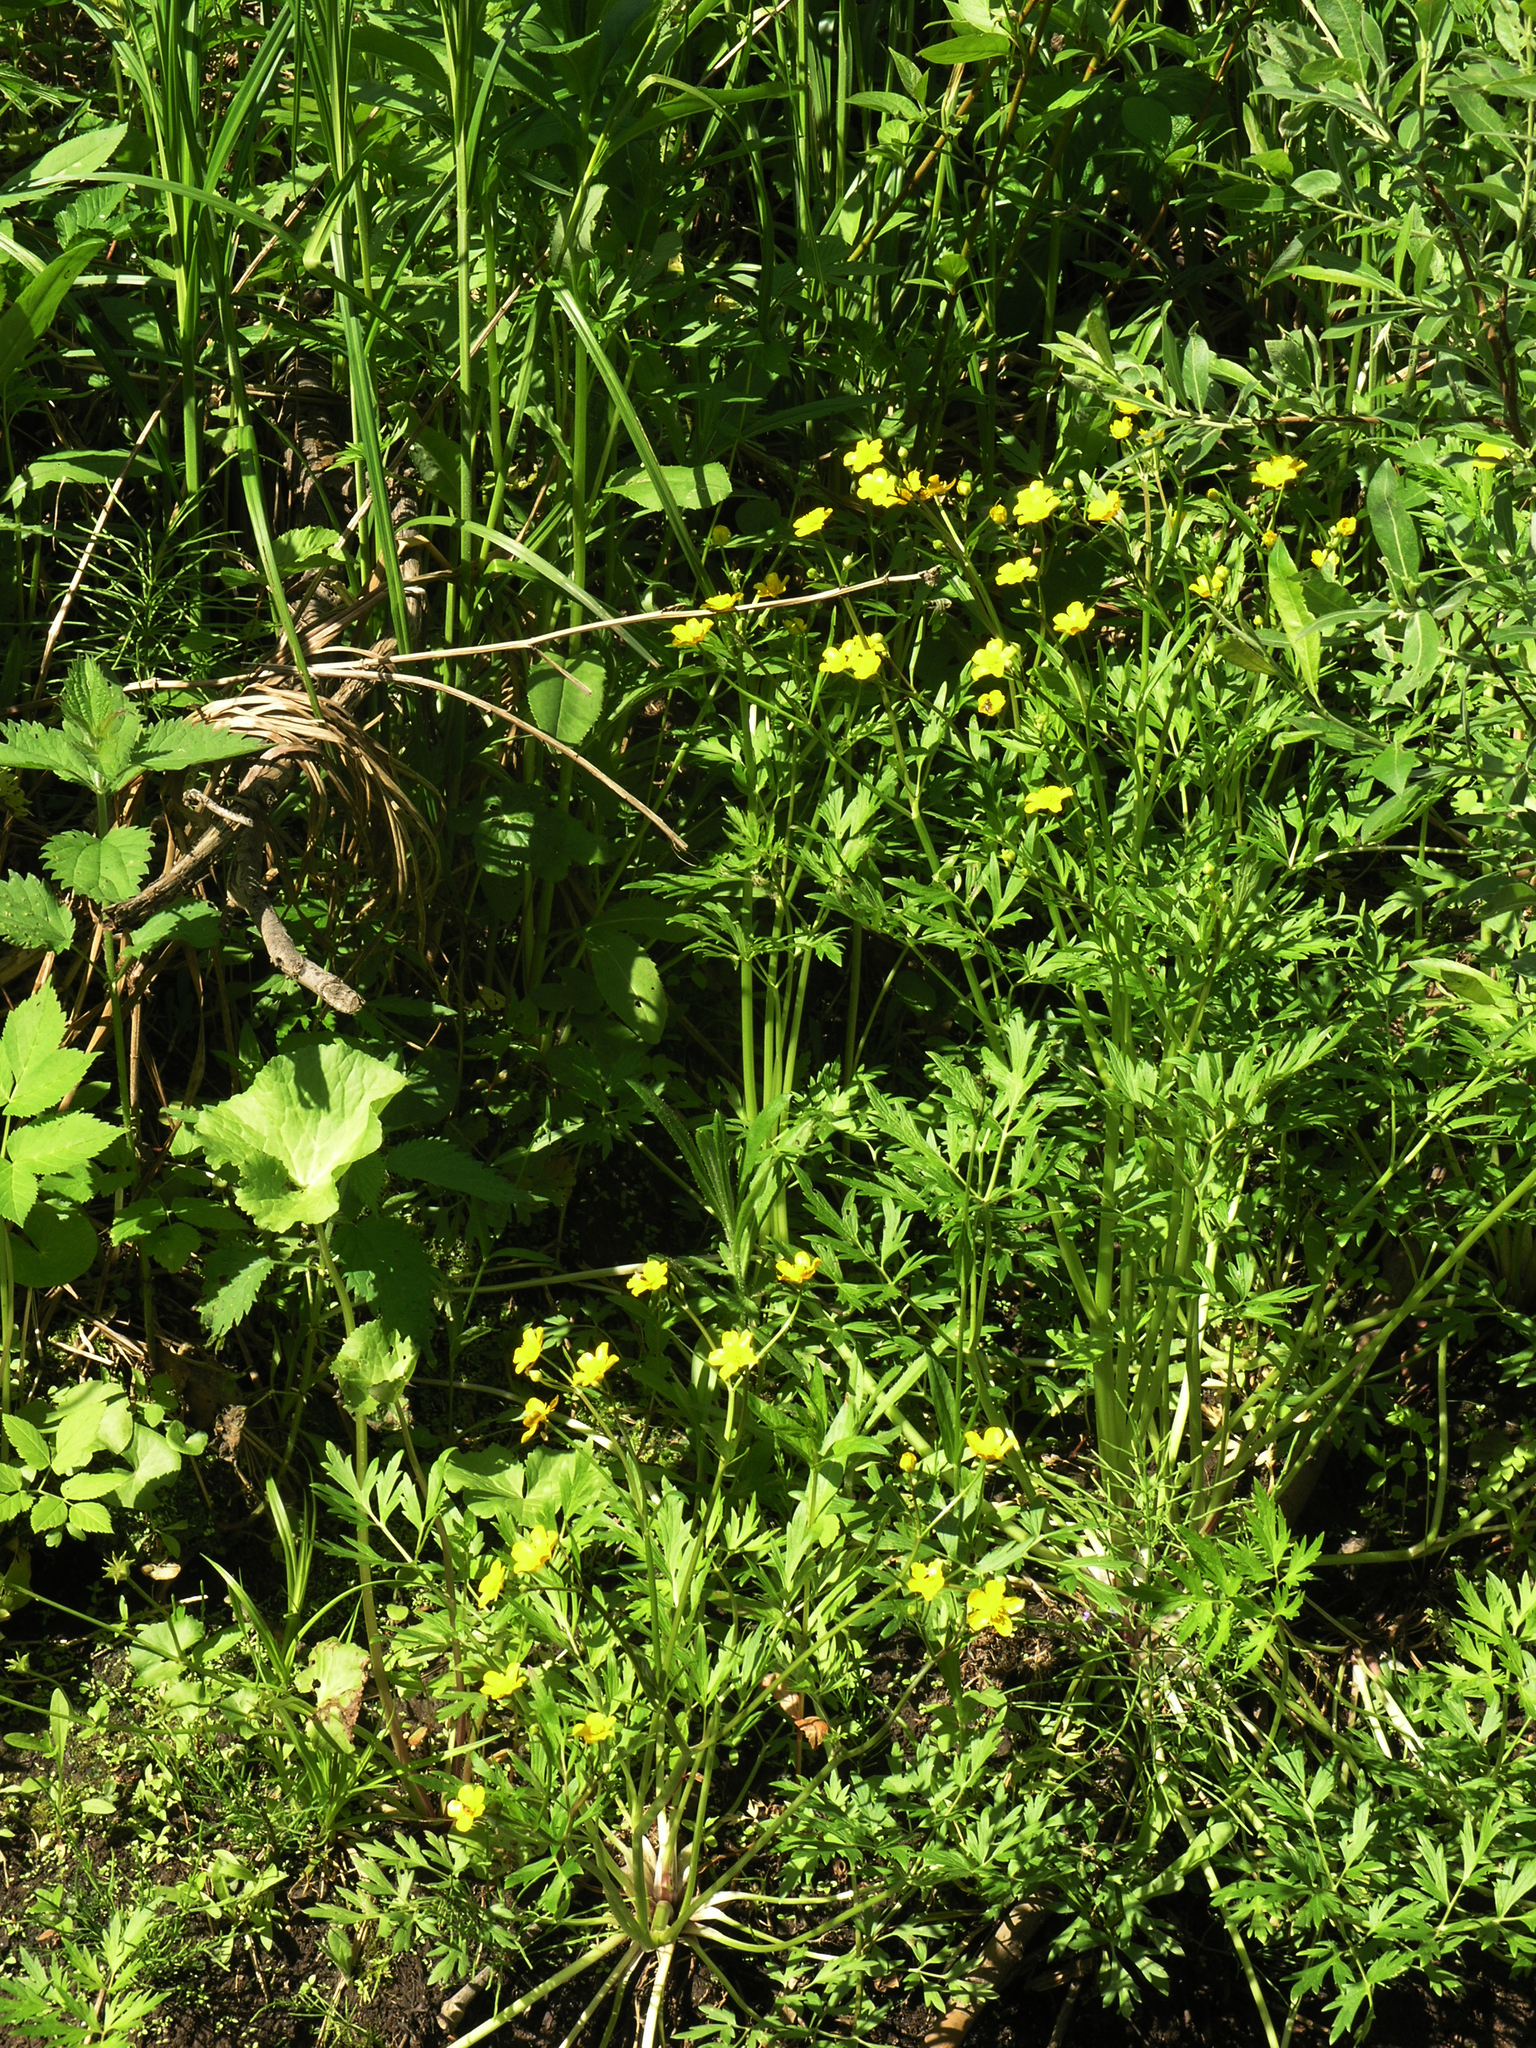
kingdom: Plantae
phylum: Tracheophyta
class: Magnoliopsida
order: Ranunculales
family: Ranunculaceae
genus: Ranunculus
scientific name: Ranunculus repens
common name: Creeping buttercup
